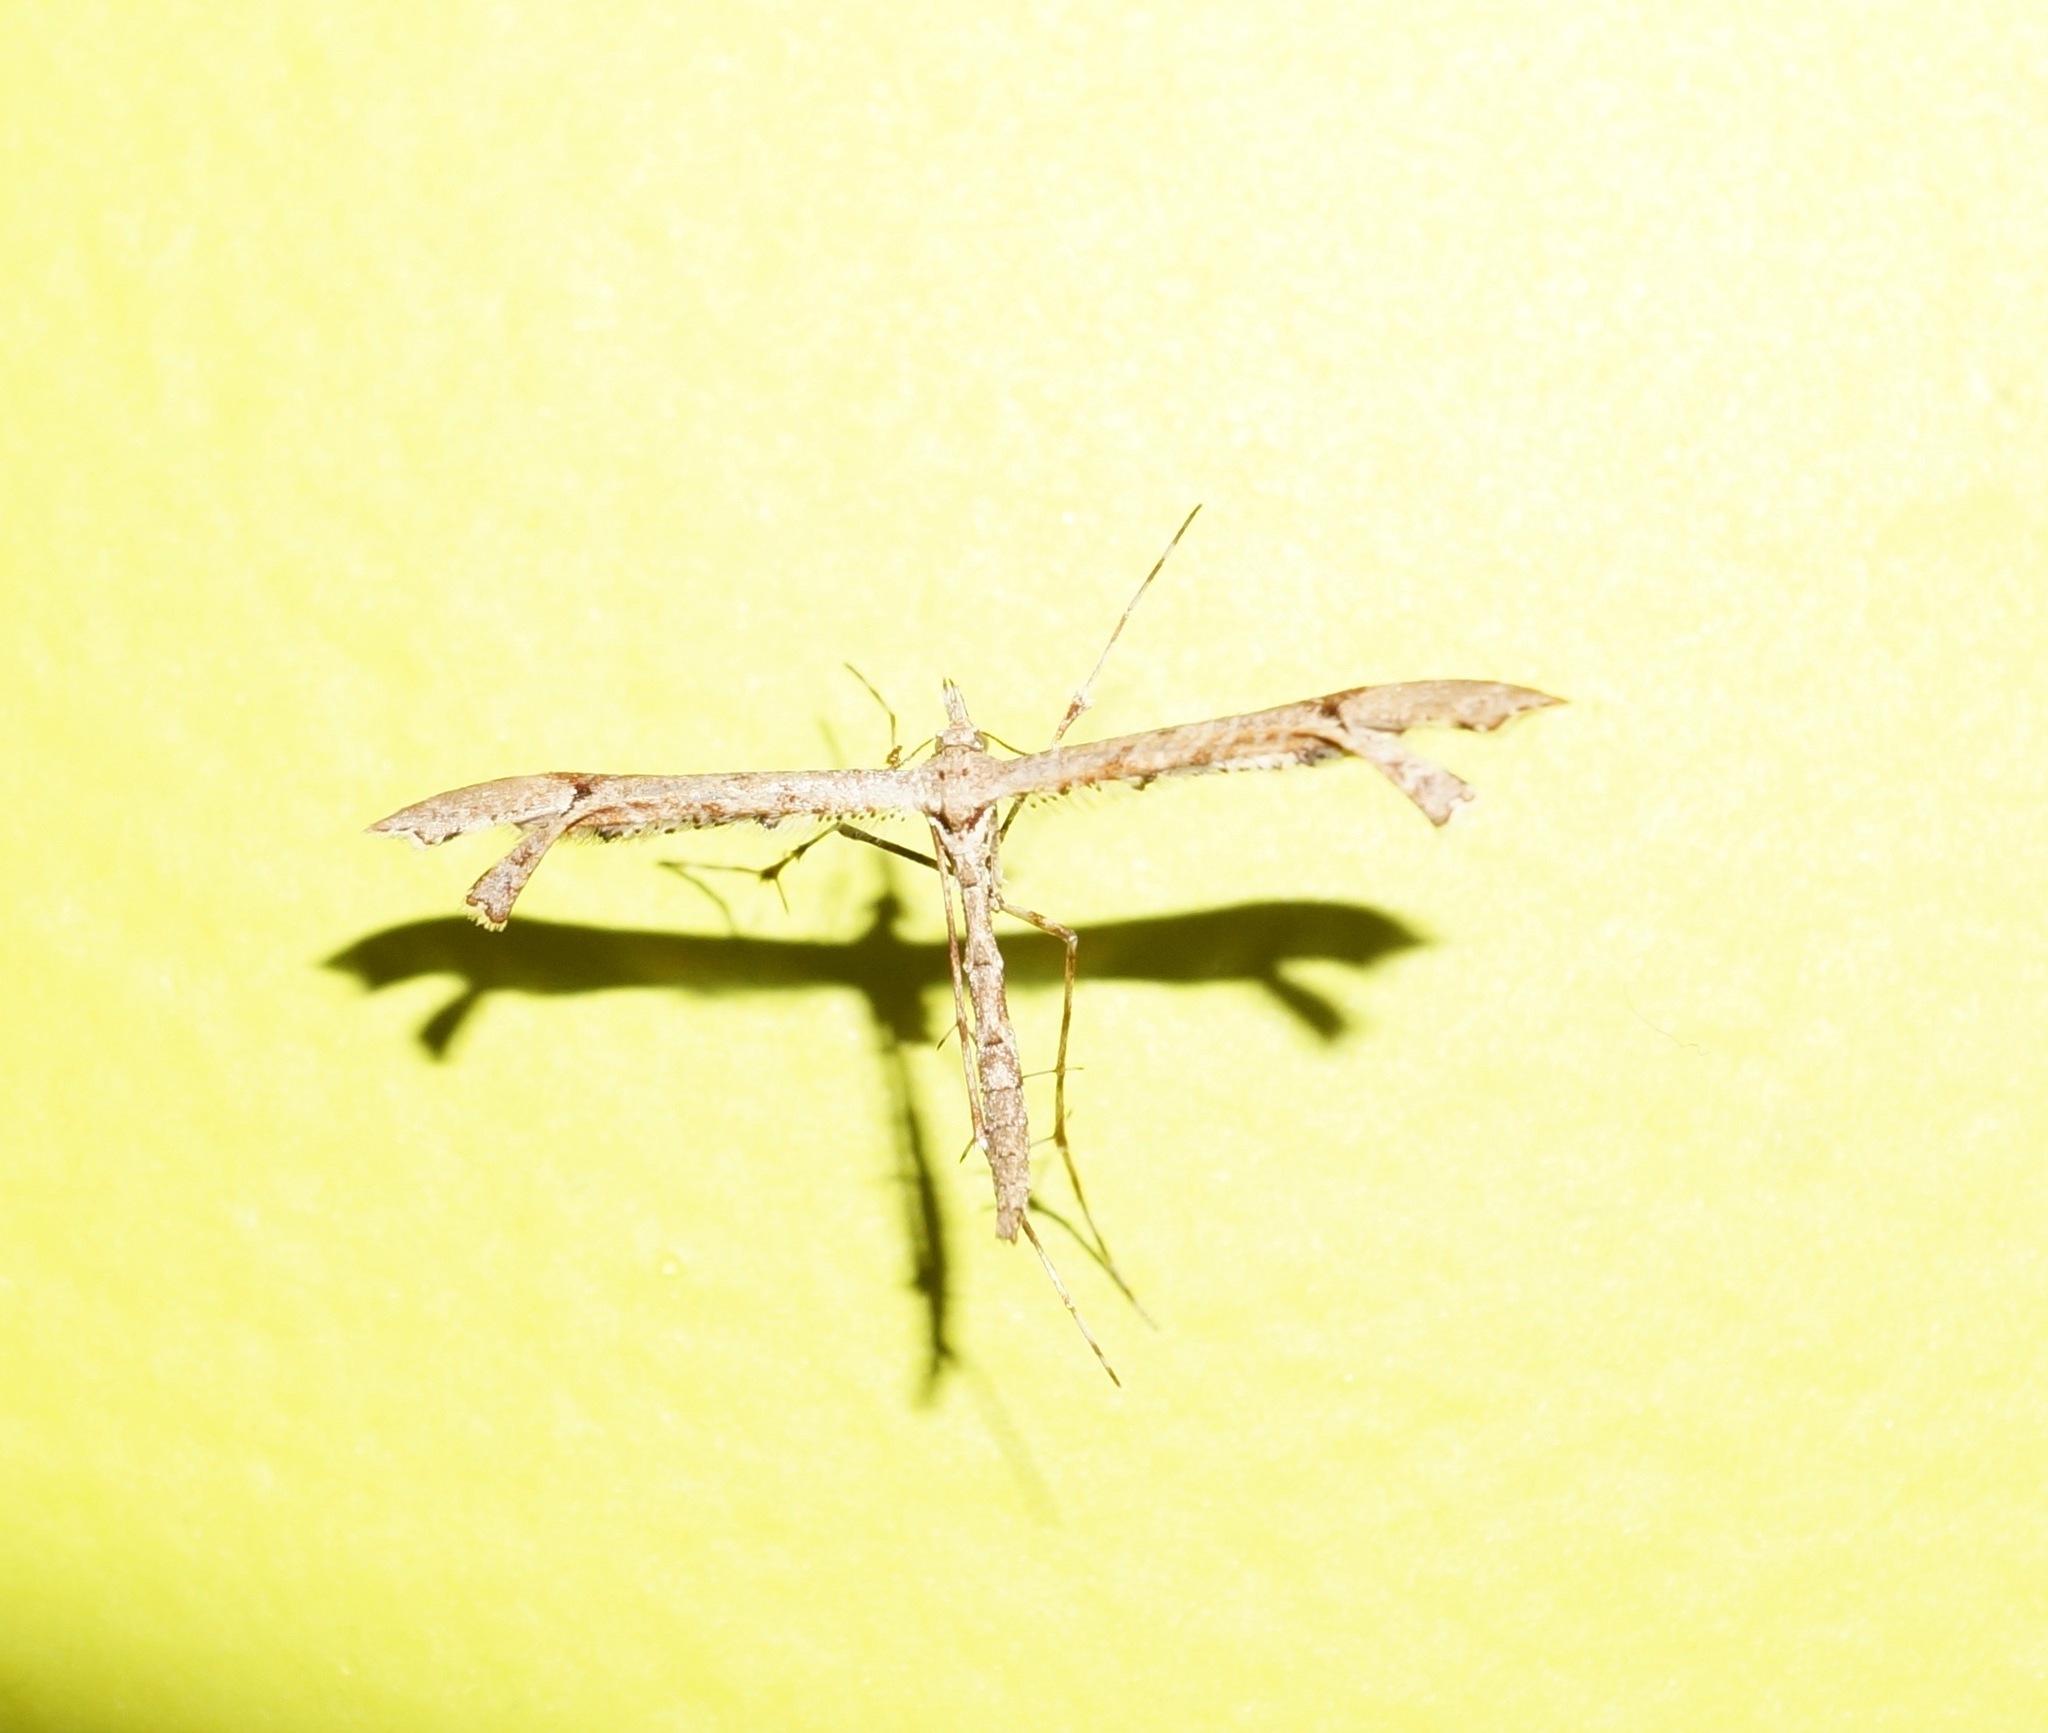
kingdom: Animalia
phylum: Arthropoda
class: Insecta
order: Lepidoptera
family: Pterophoridae
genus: Amblyptilia
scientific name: Amblyptilia repletalis
